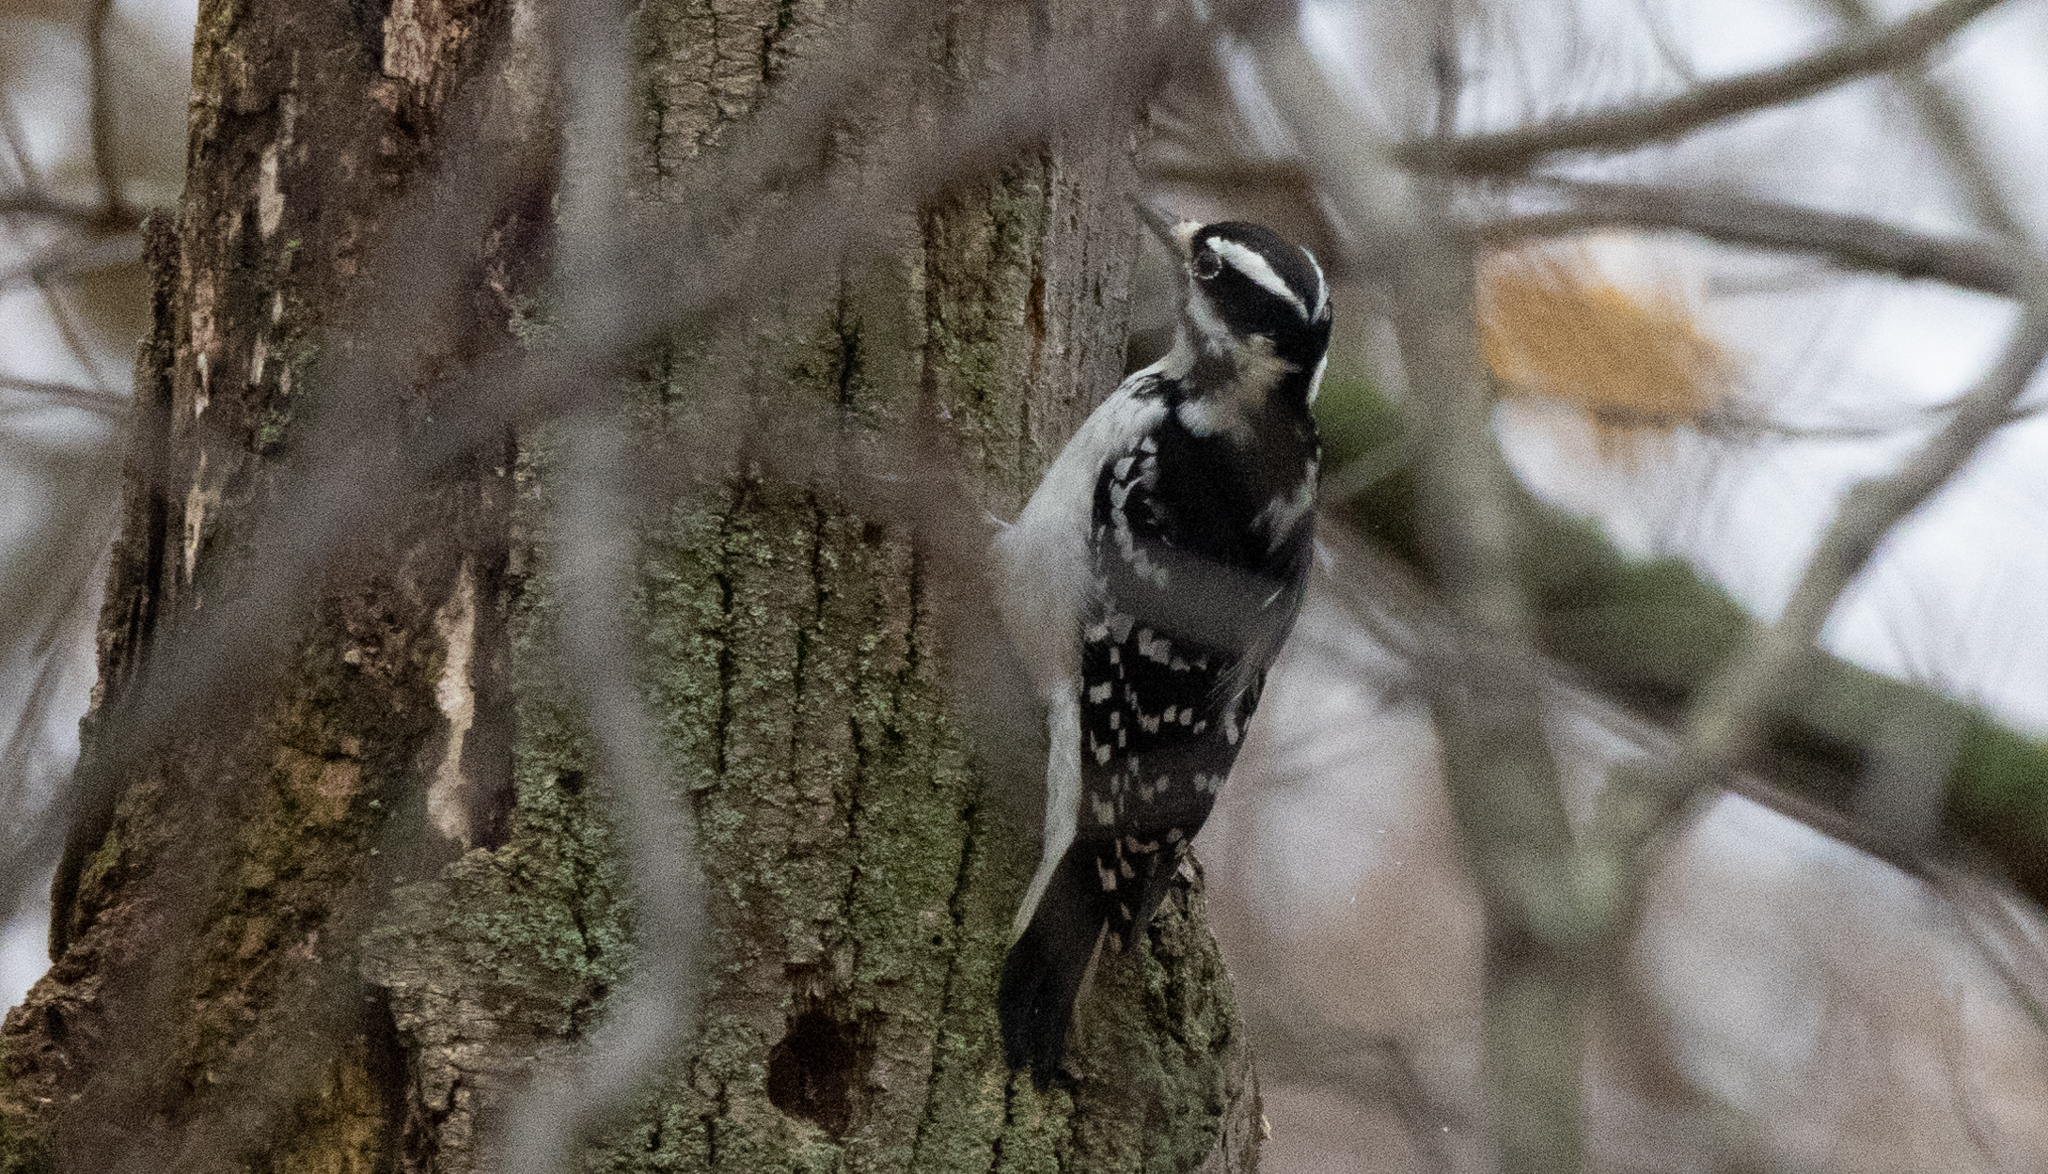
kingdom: Animalia
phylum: Chordata
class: Aves
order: Piciformes
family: Picidae
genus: Leuconotopicus
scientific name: Leuconotopicus villosus
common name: Hairy woodpecker
